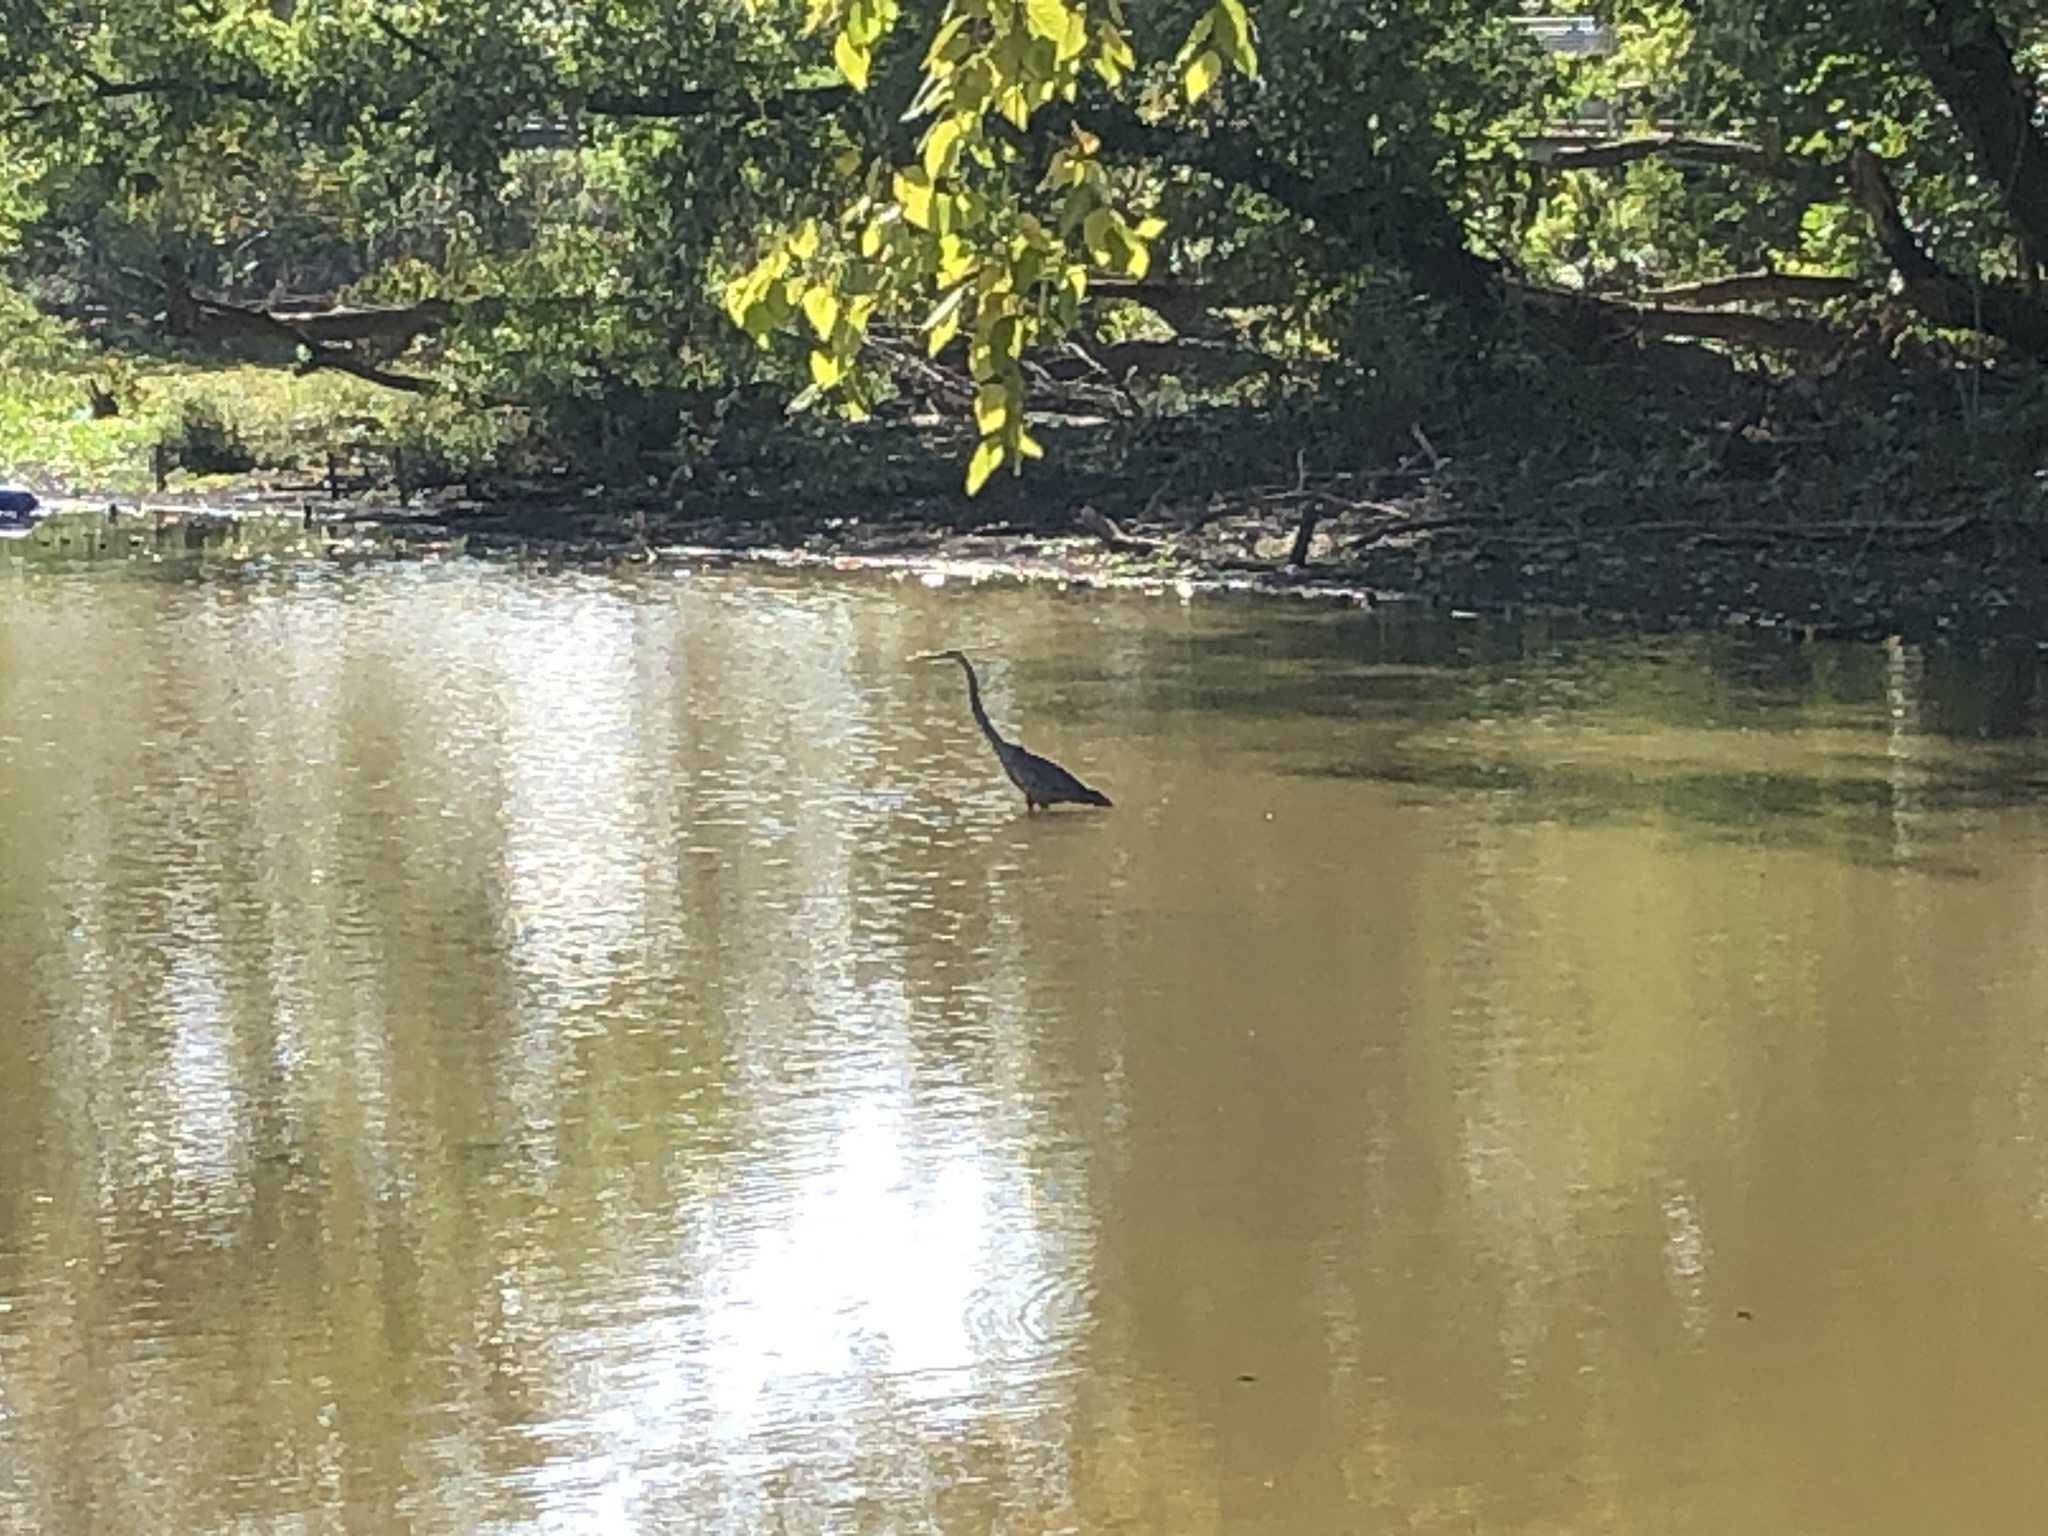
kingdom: Animalia
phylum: Chordata
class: Aves
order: Pelecaniformes
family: Ardeidae
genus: Ardea
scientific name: Ardea herodias
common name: Great blue heron
